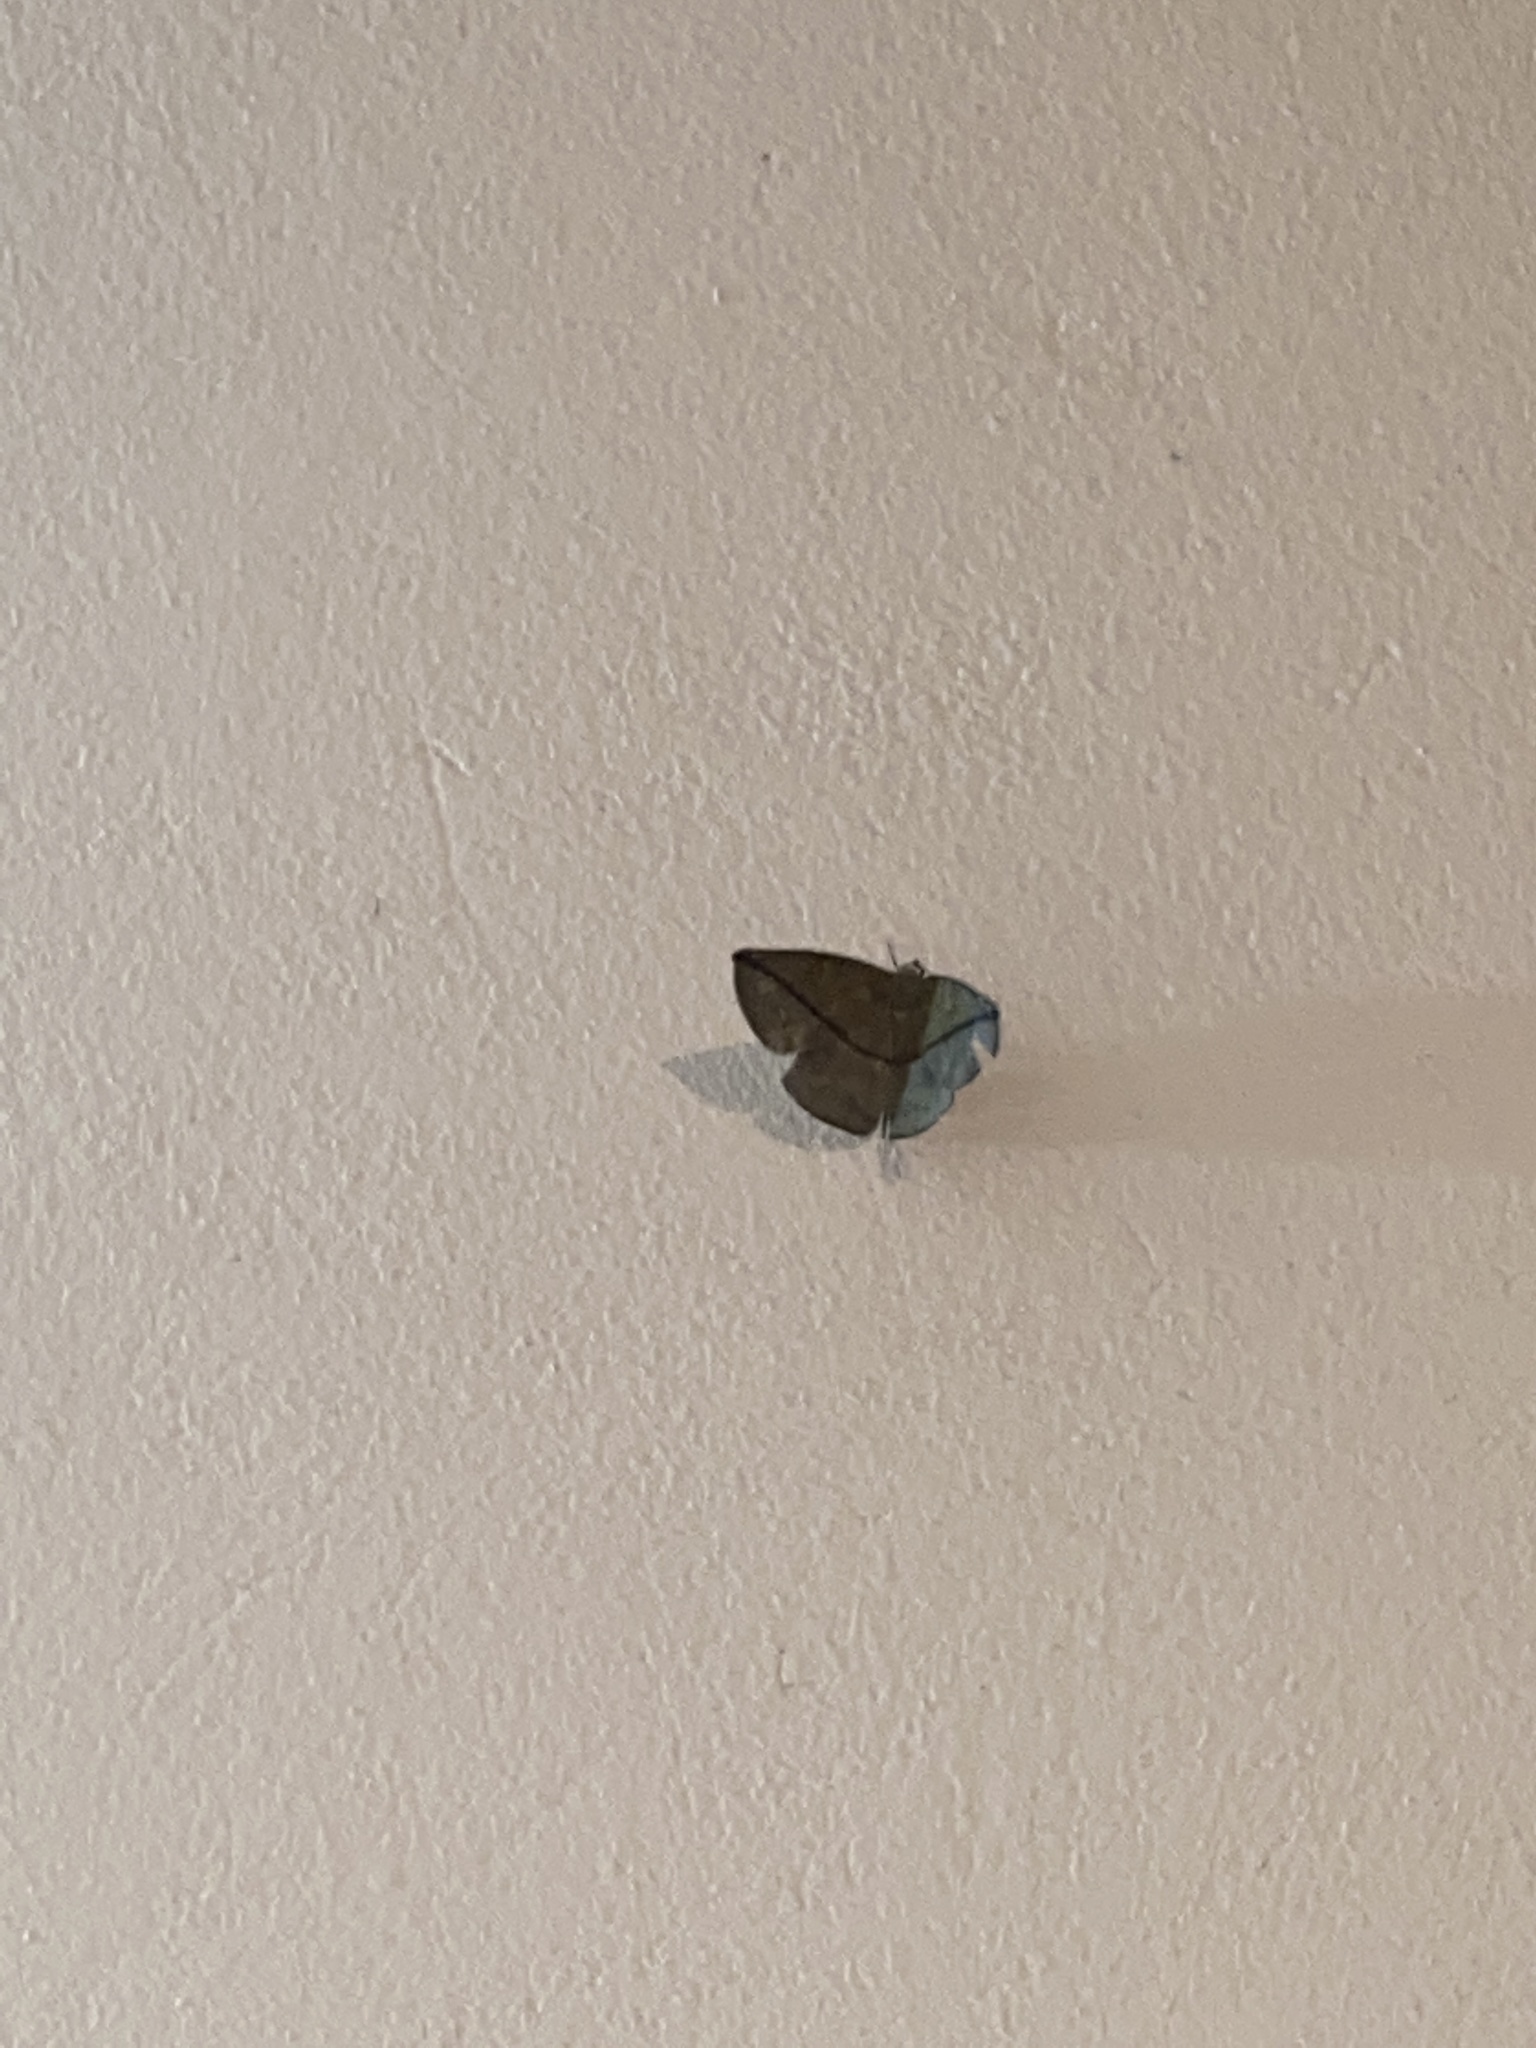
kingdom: Animalia
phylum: Arthropoda
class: Insecta
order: Lepidoptera
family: Geometridae
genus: Patalene
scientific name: Patalene hamulata
